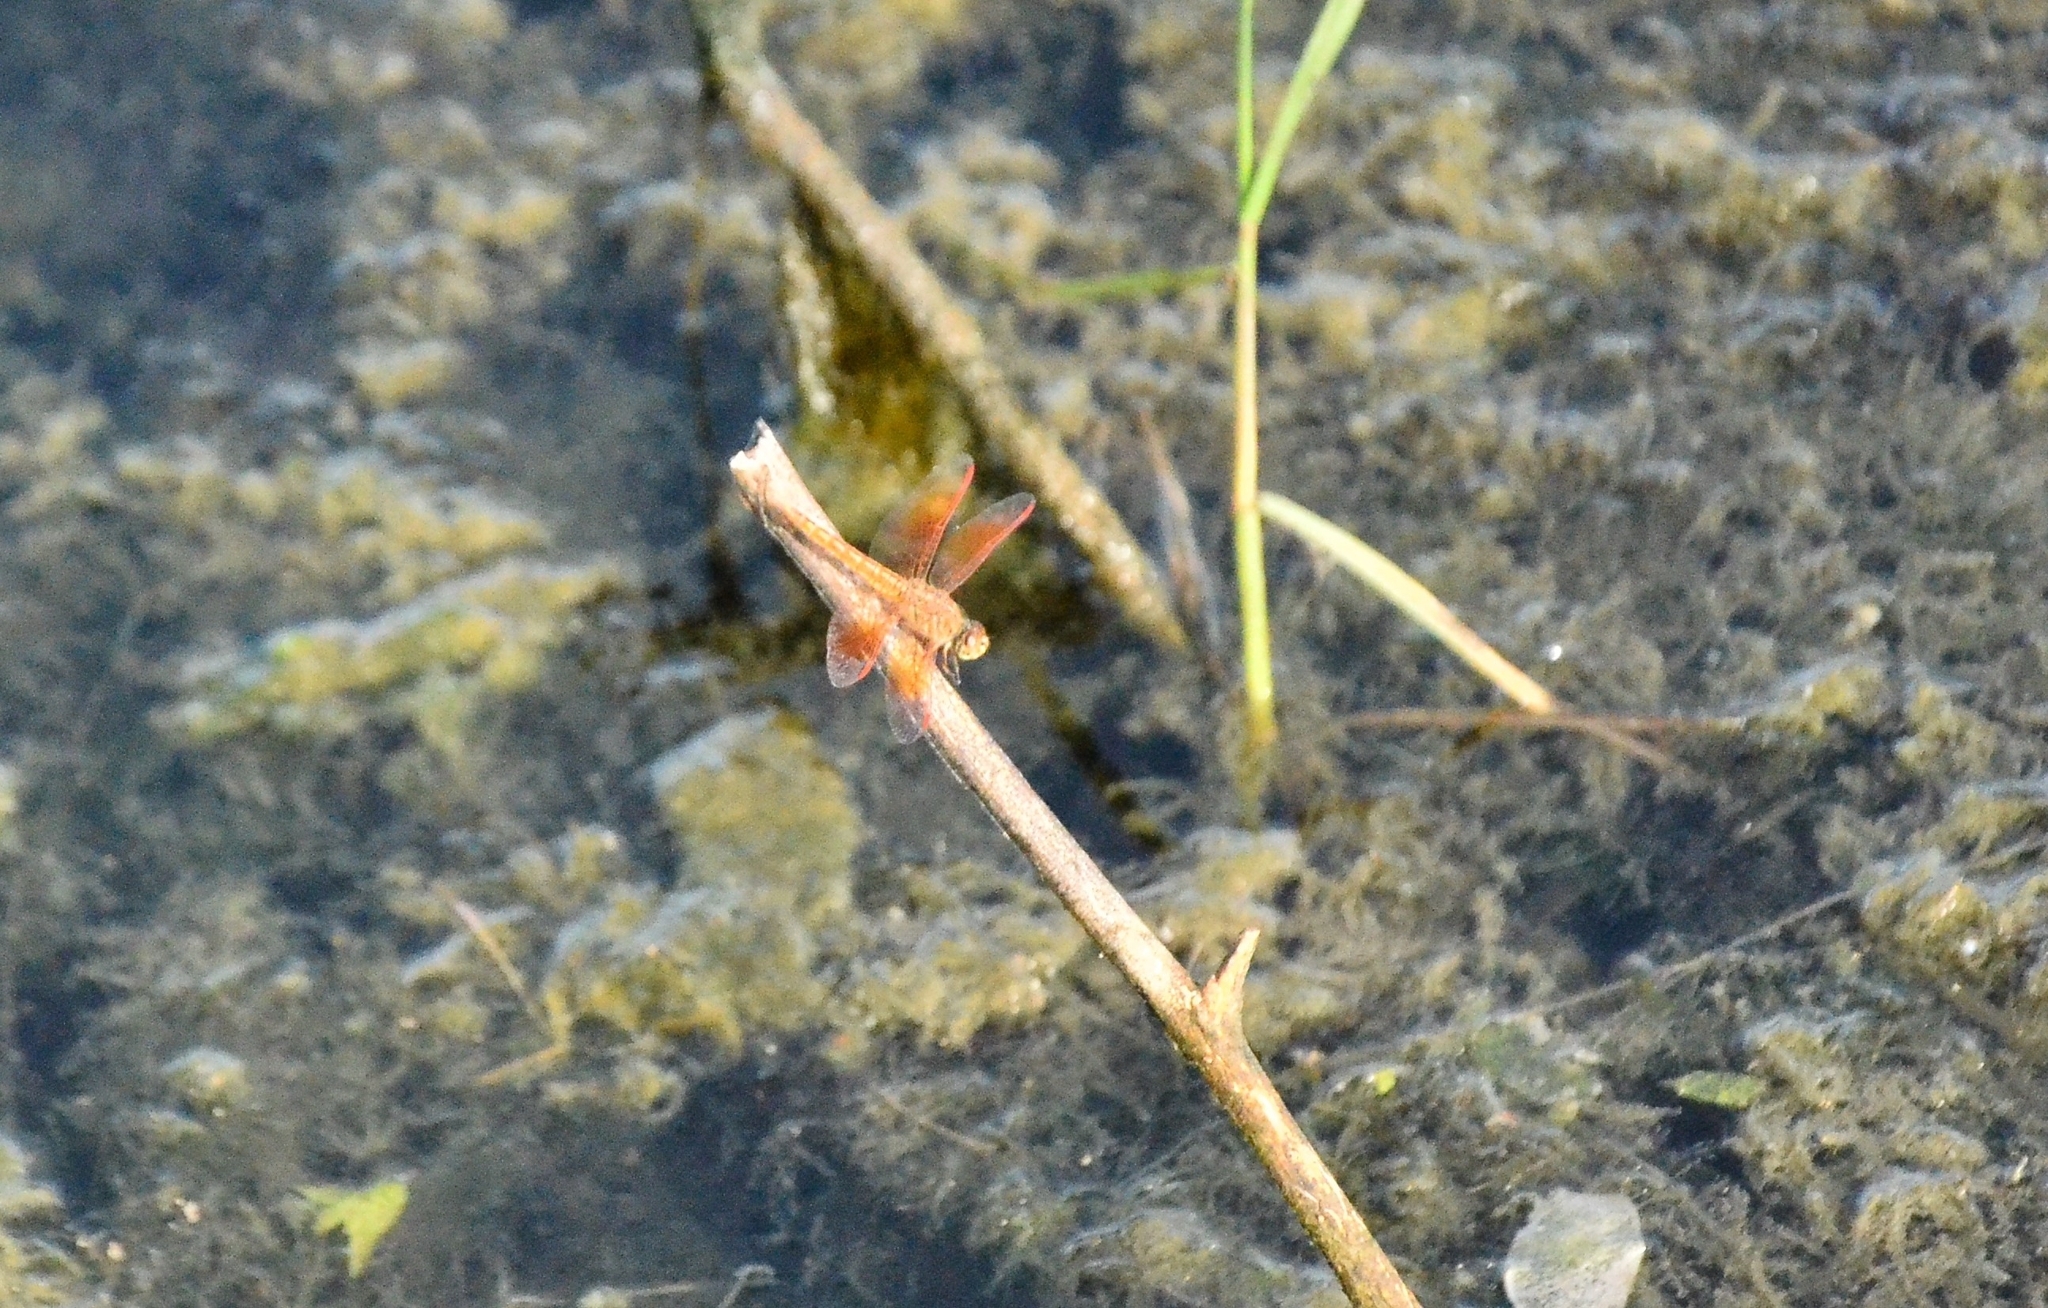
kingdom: Animalia
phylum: Arthropoda
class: Insecta
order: Odonata
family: Libellulidae
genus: Brachythemis
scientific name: Brachythemis contaminata
